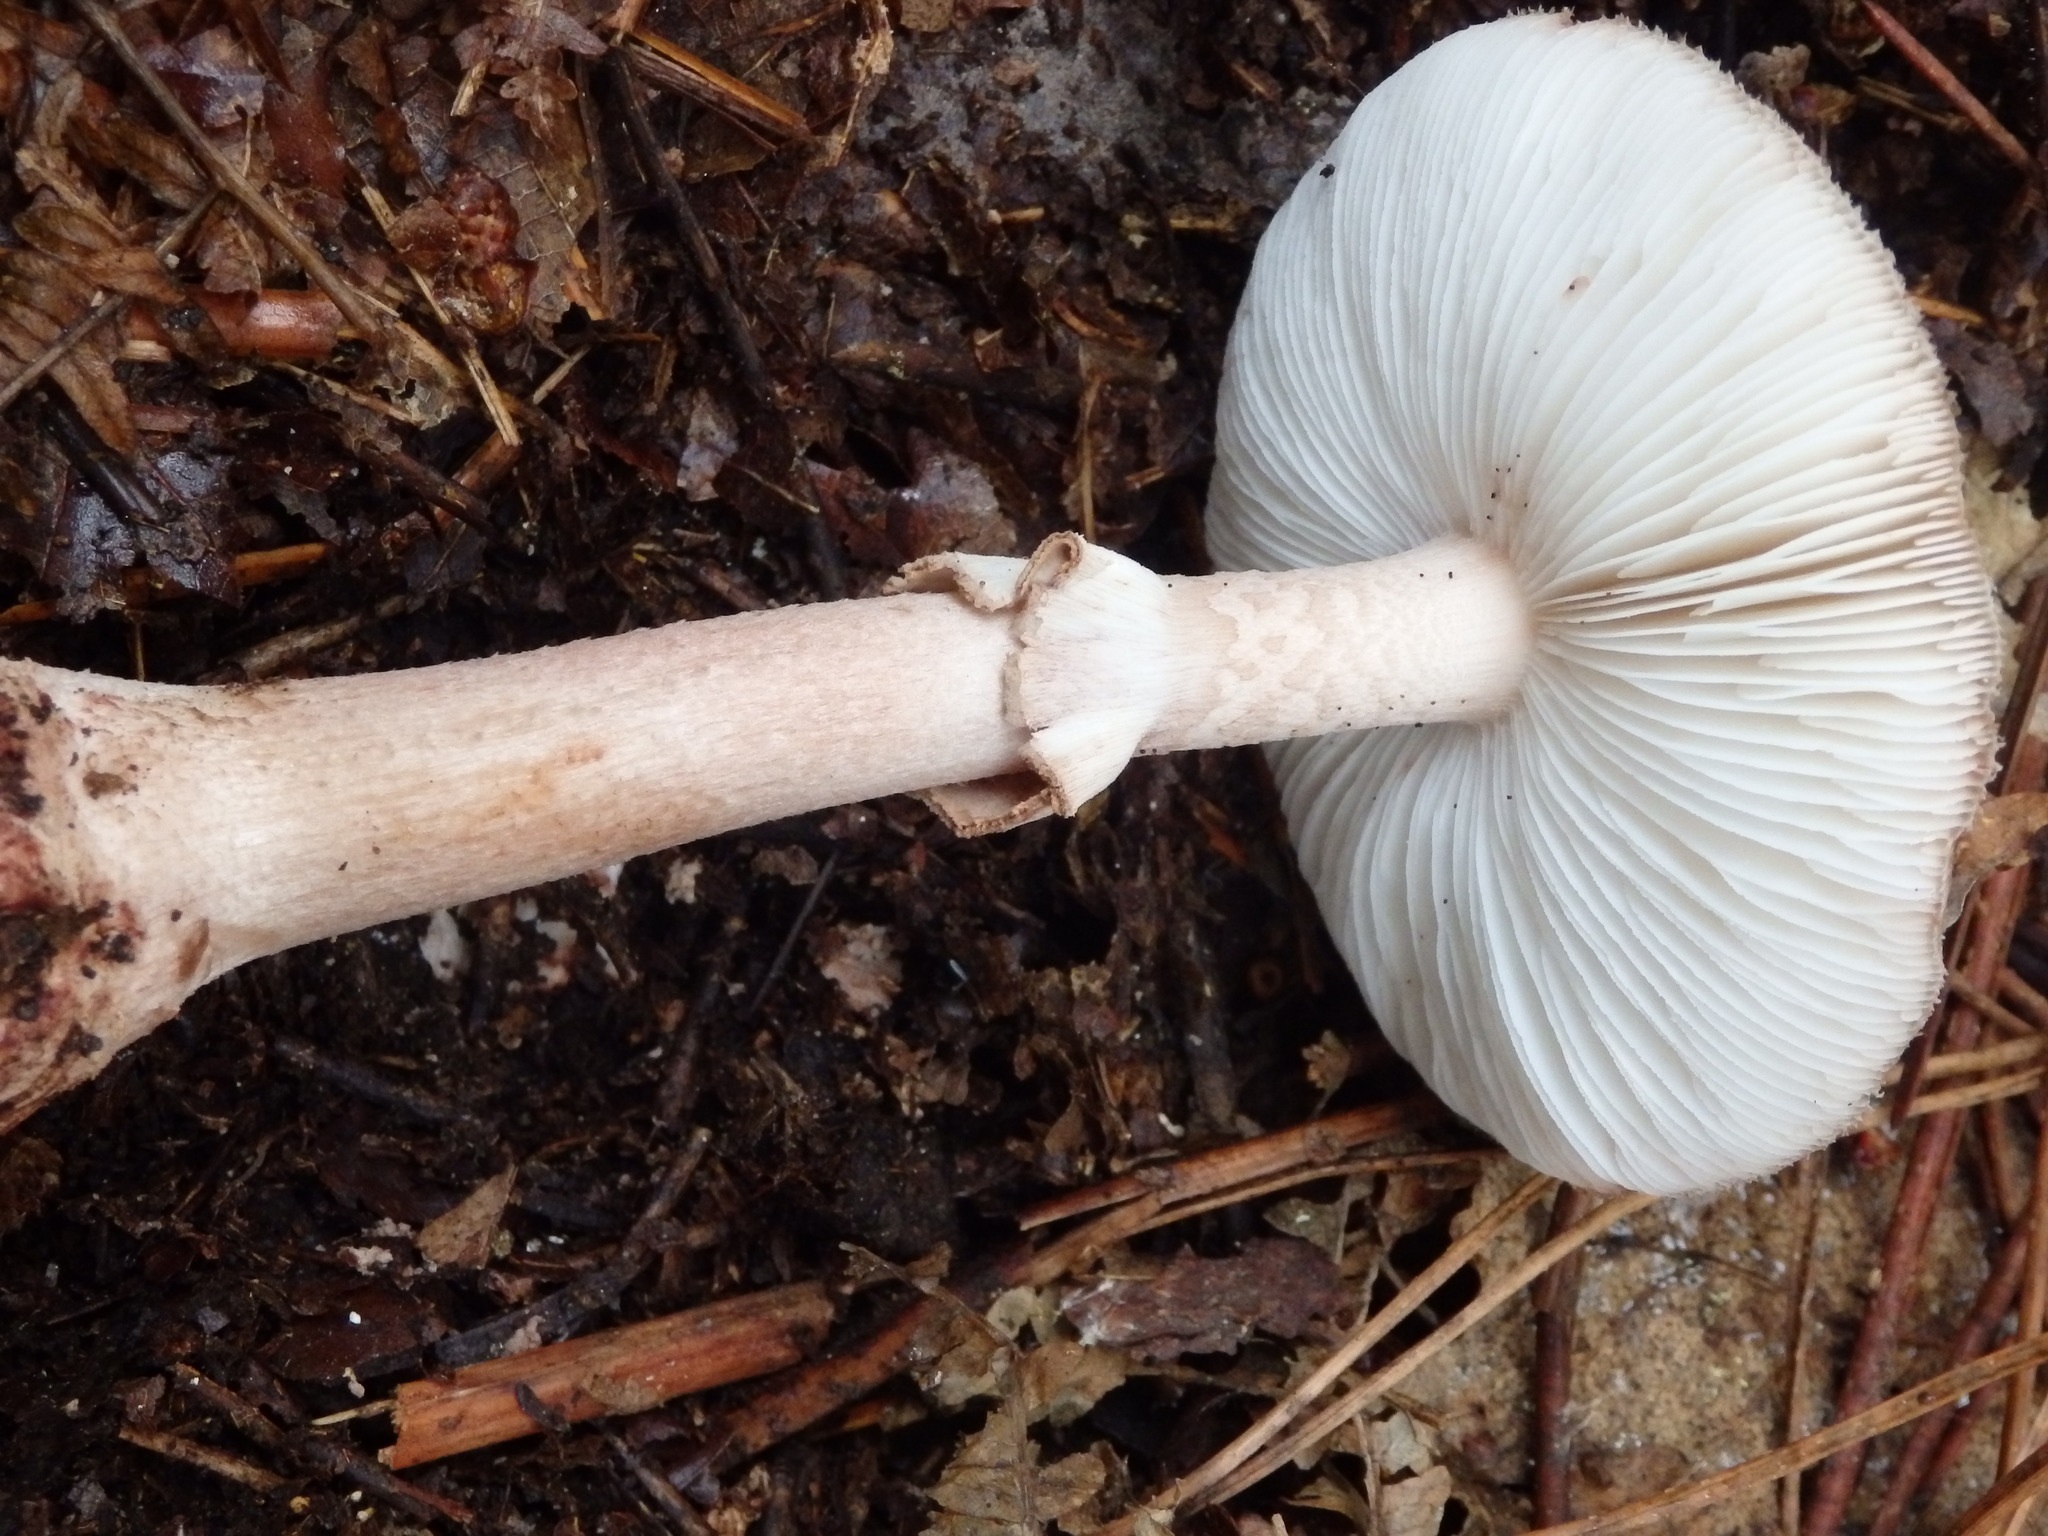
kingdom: Fungi
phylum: Basidiomycota
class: Agaricomycetes
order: Agaricales
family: Amanitaceae
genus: Amanita
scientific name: Amanita rubescens
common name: Blusher
